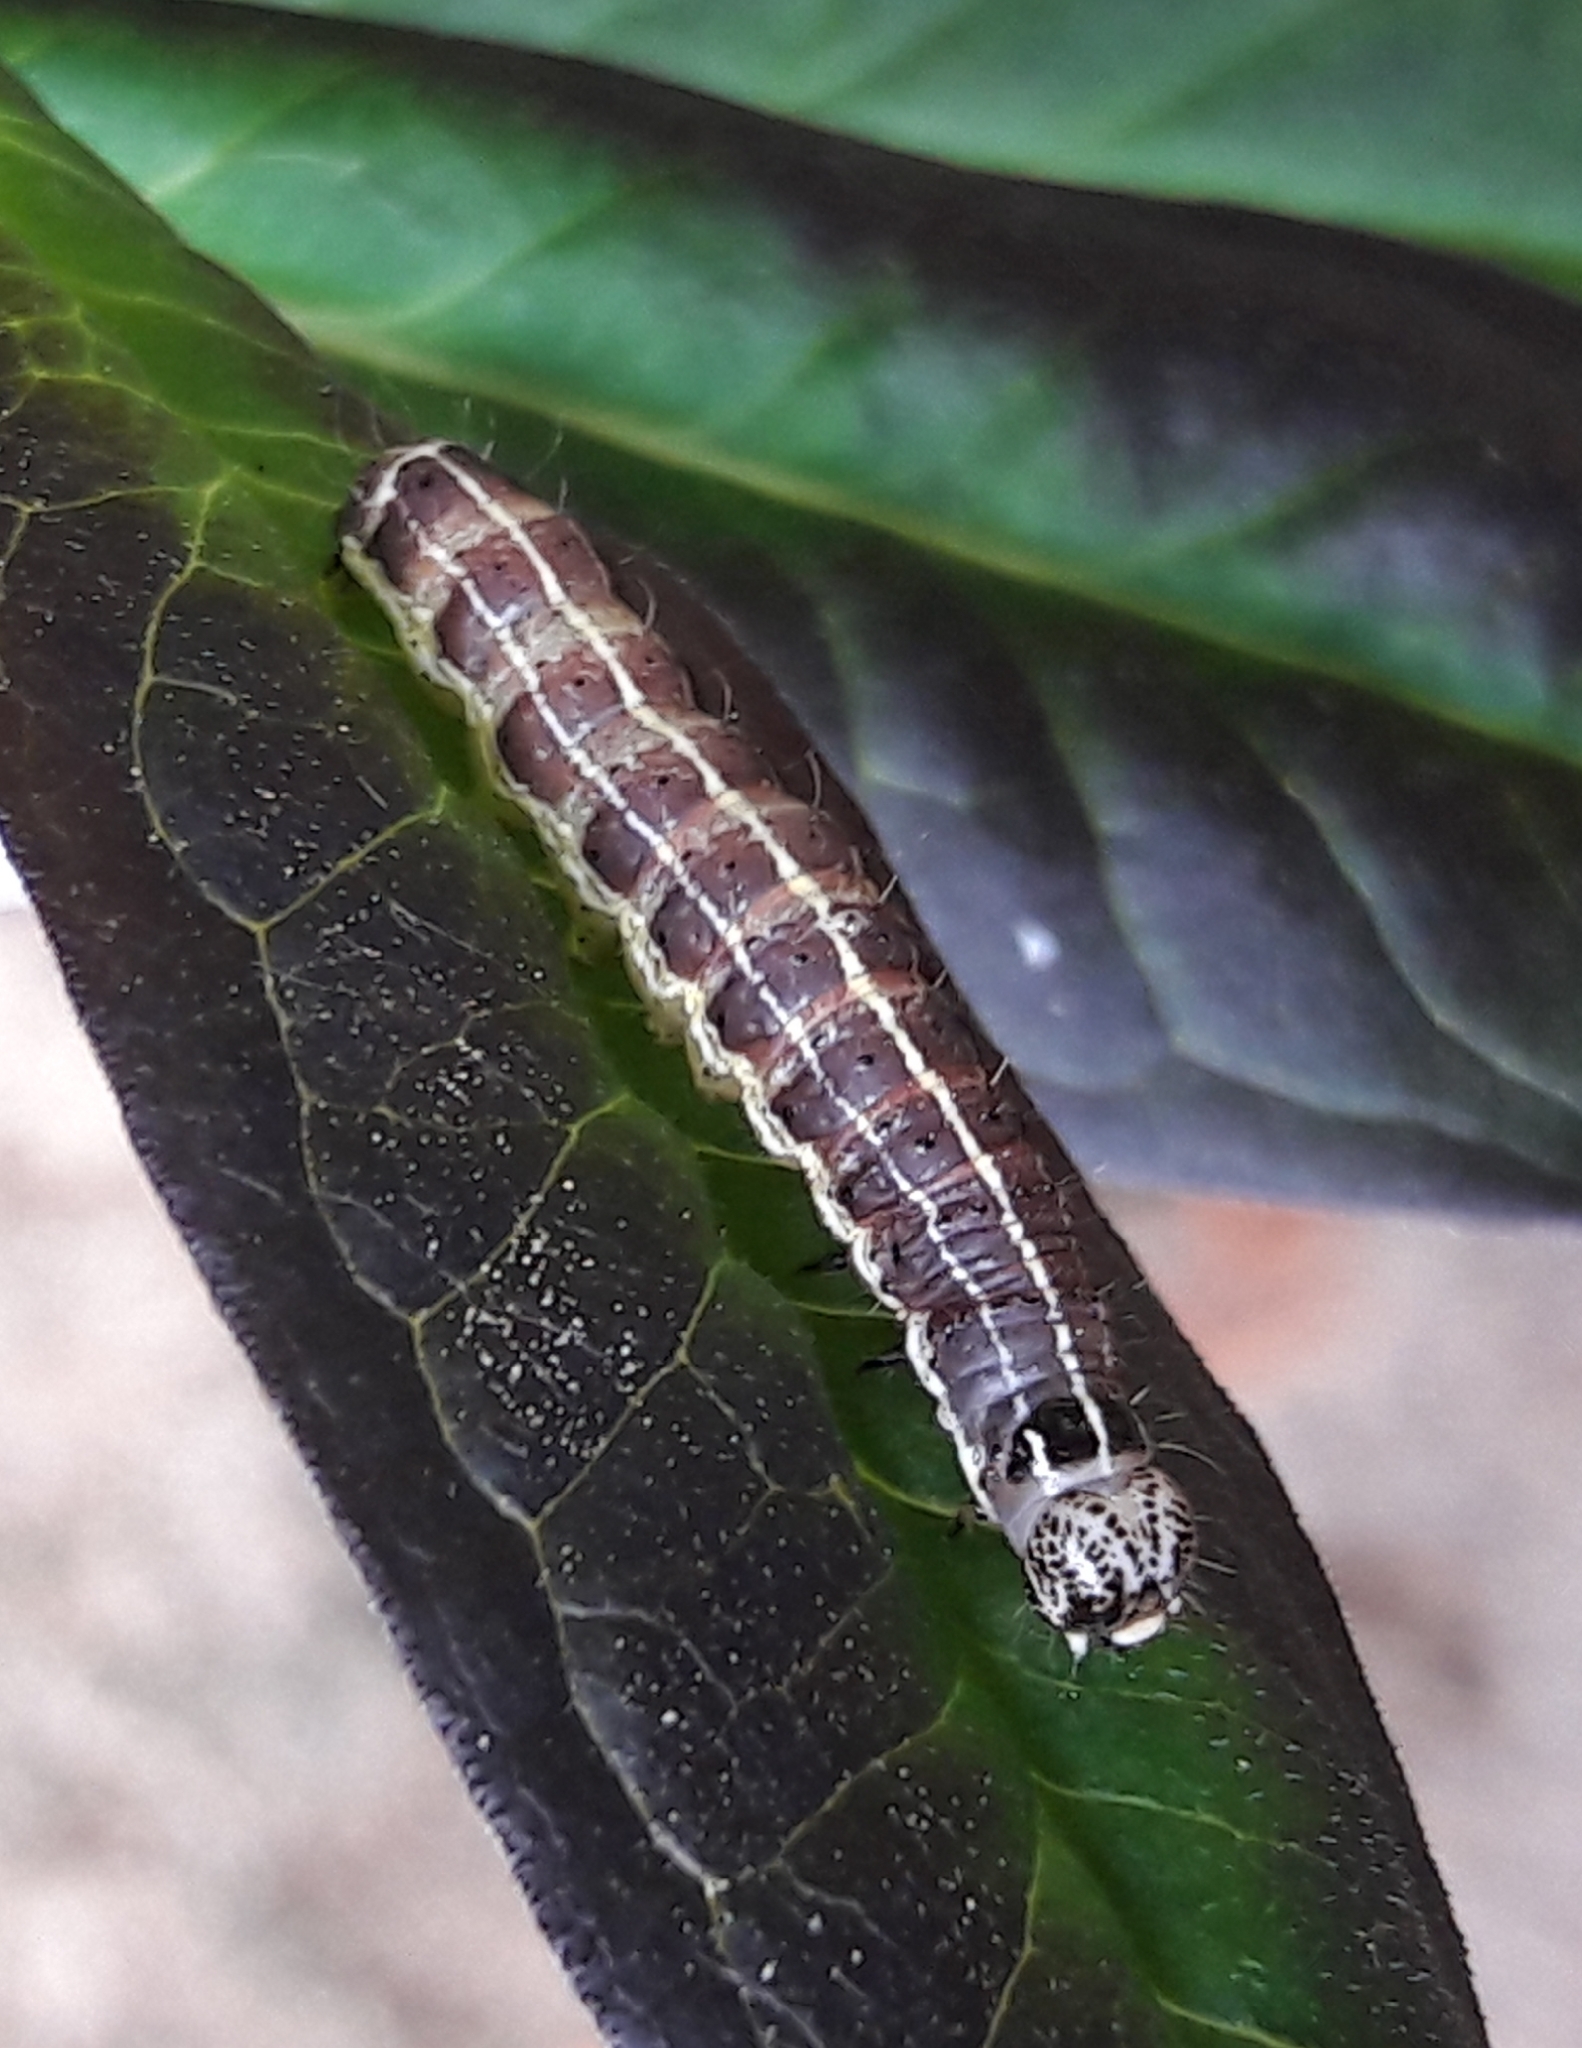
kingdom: Animalia
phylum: Arthropoda
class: Insecta
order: Lepidoptera
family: Noctuidae
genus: Orthosia
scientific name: Orthosia cruda
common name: Small quaker
